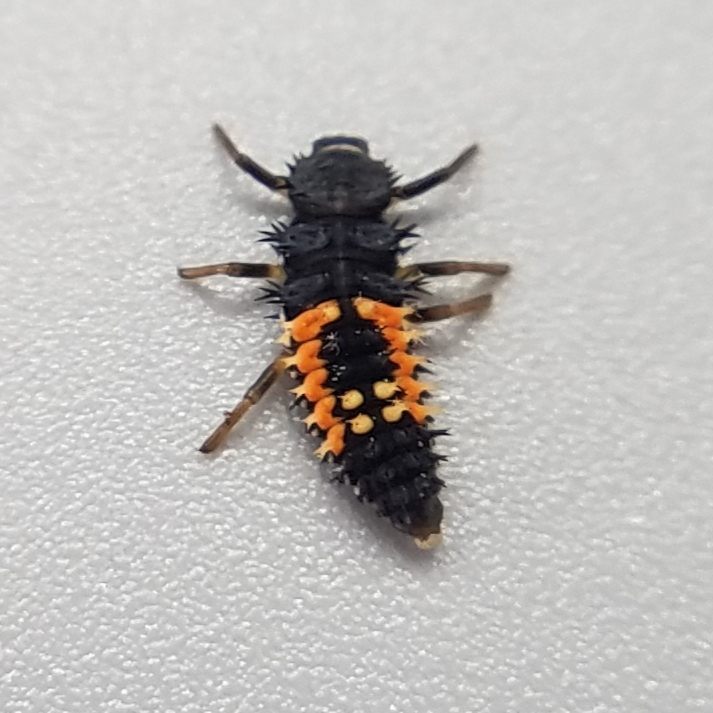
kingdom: Animalia
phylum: Arthropoda
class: Insecta
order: Coleoptera
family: Coccinellidae
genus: Harmonia
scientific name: Harmonia axyridis
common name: Harlequin ladybird
